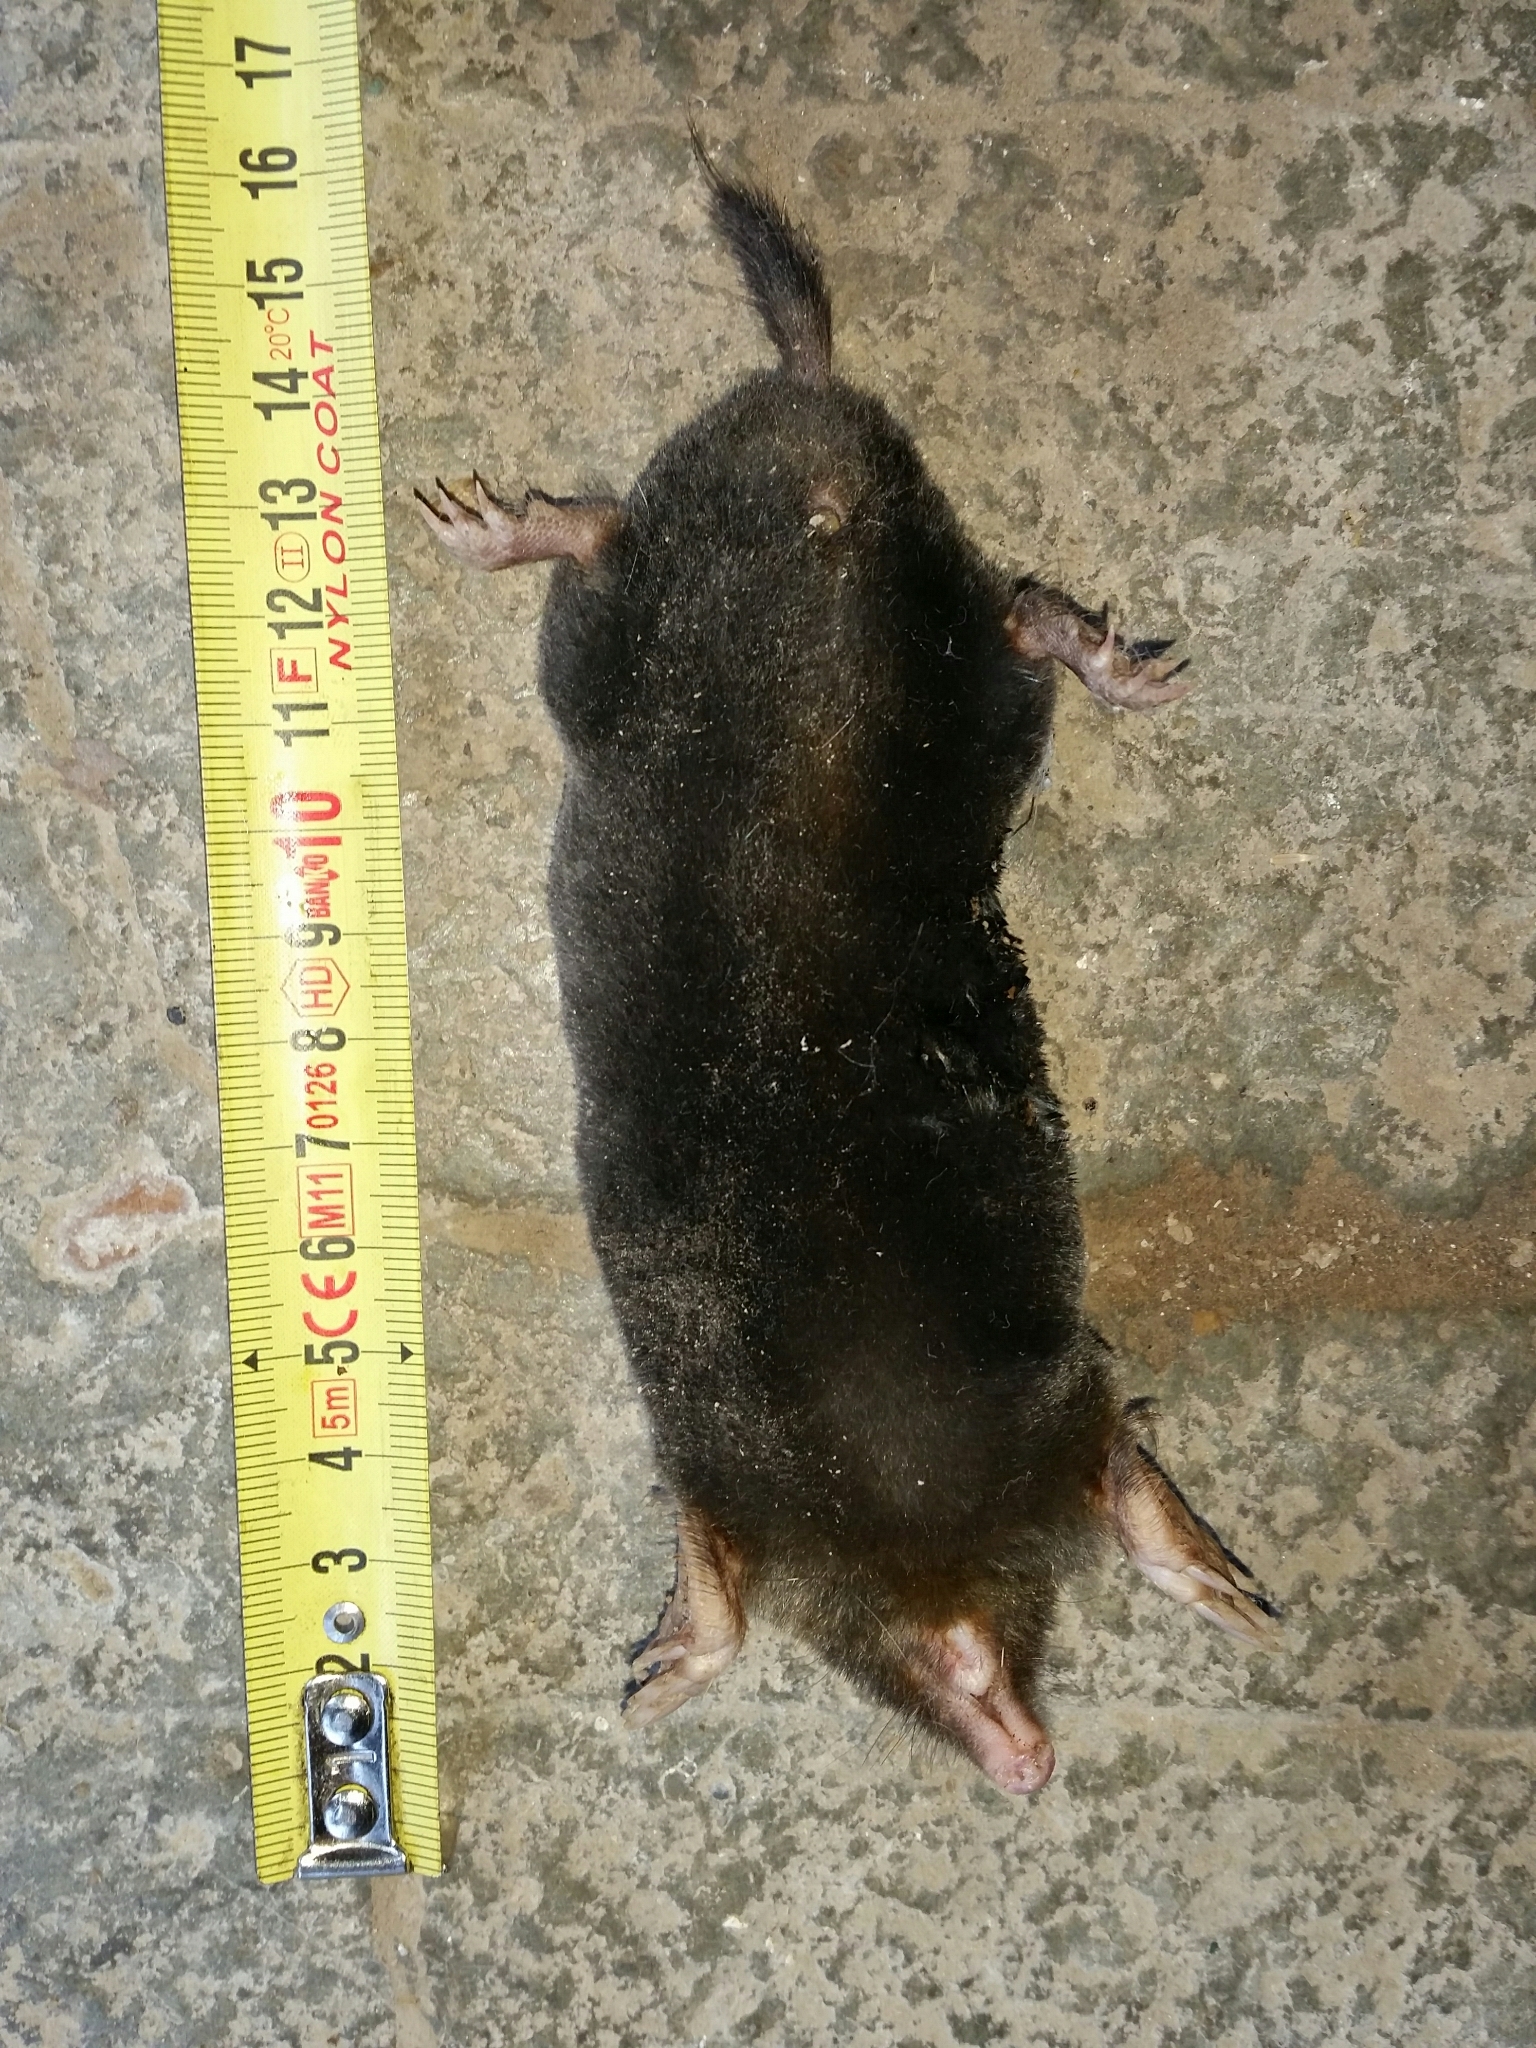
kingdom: Animalia
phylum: Chordata
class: Mammalia
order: Soricomorpha
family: Talpidae
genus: Talpa
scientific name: Talpa europaea
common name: European mole
